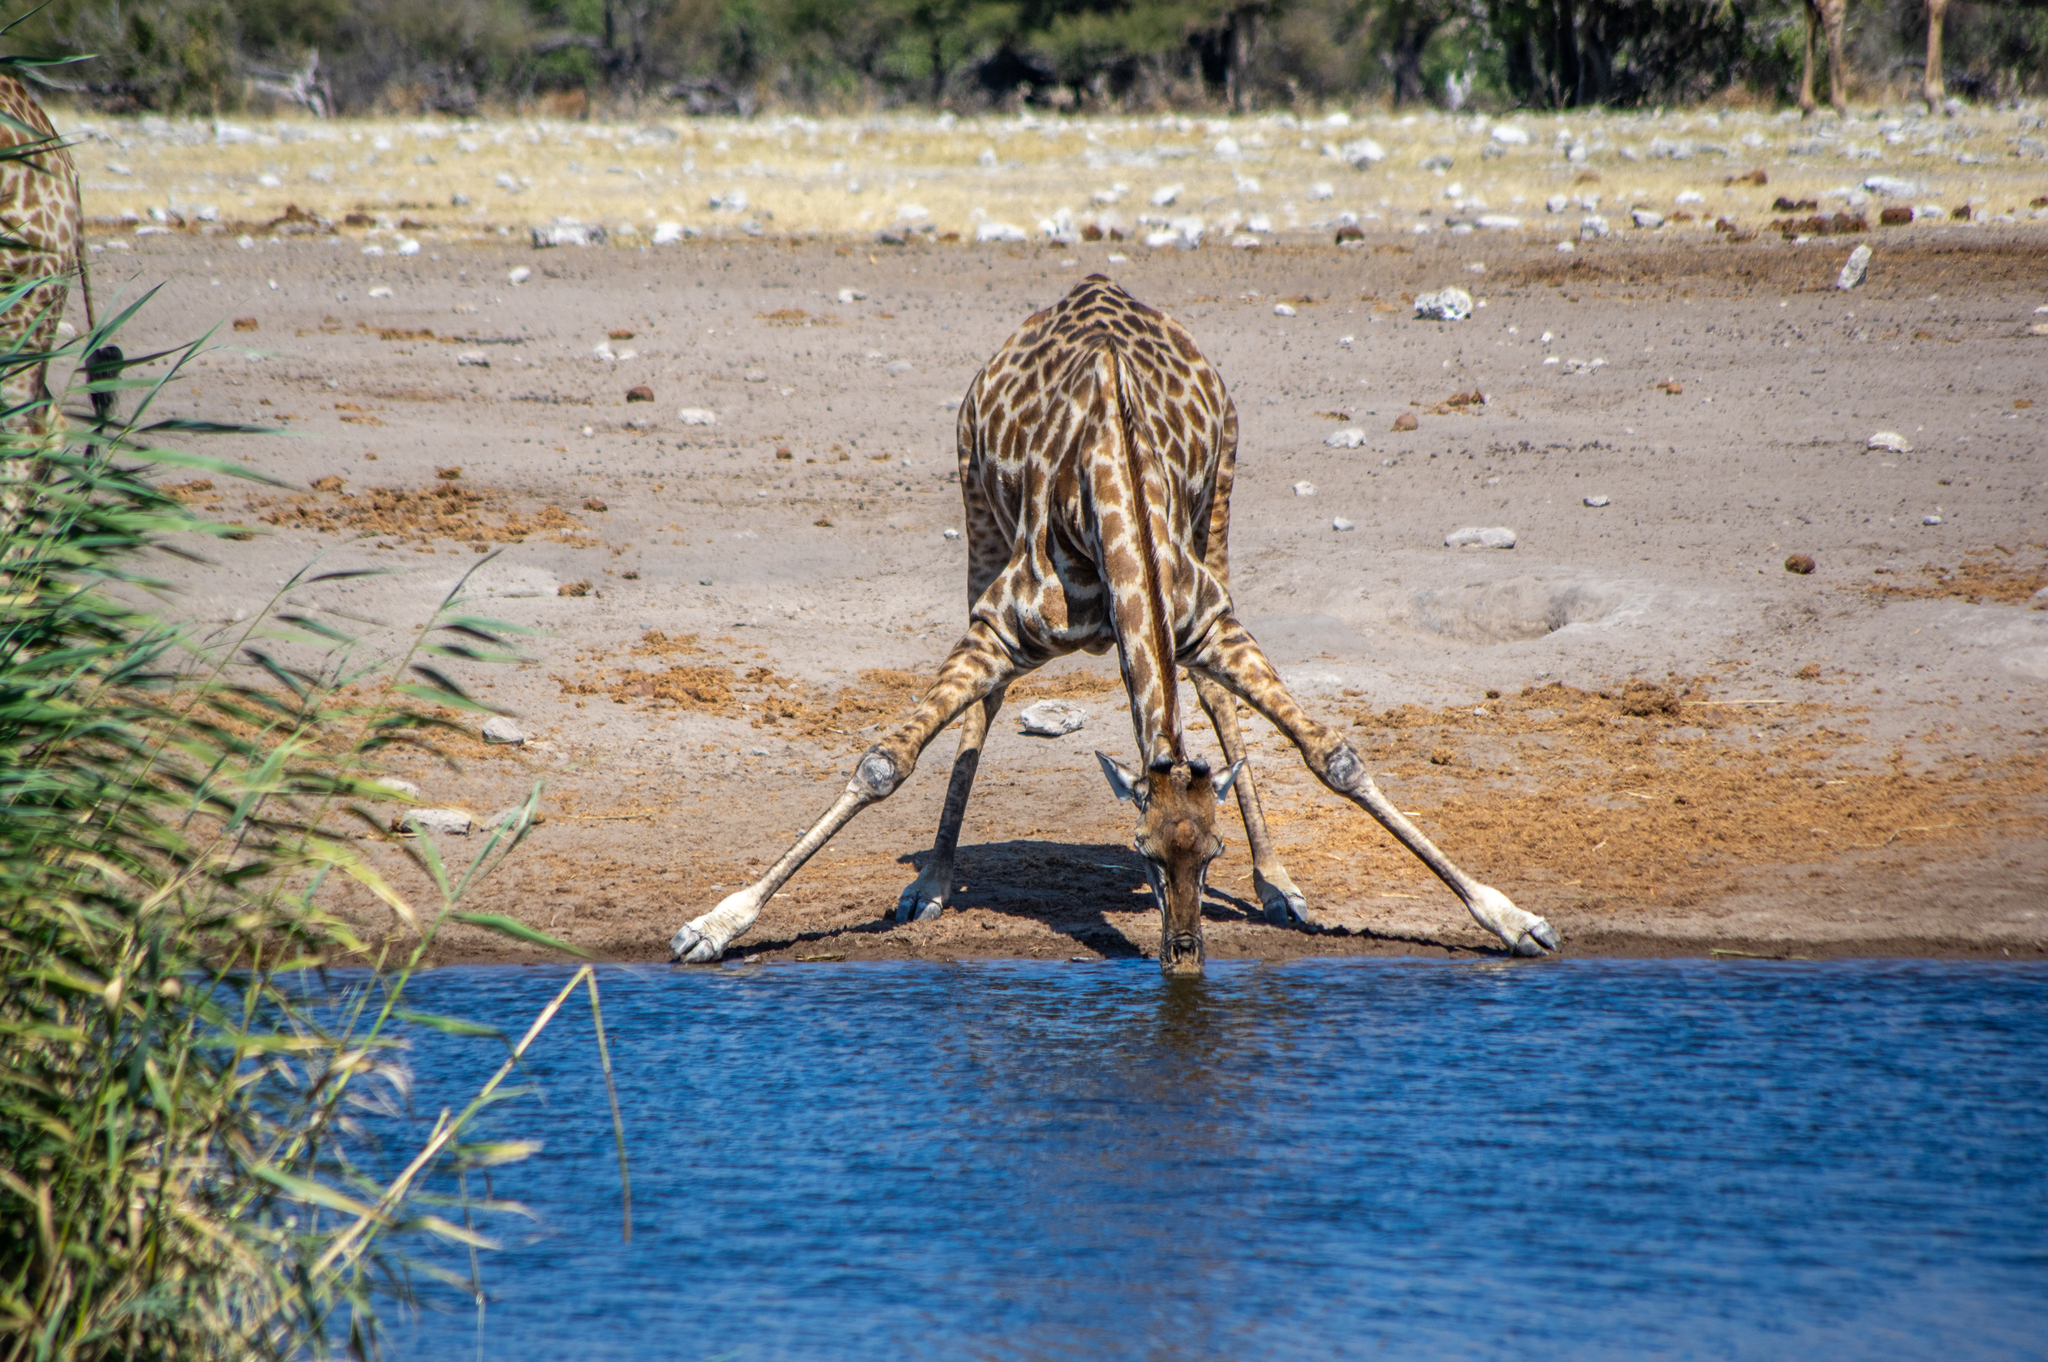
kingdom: Animalia
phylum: Chordata
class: Mammalia
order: Artiodactyla
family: Giraffidae
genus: Giraffa
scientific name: Giraffa giraffa
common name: Southern giraffe
